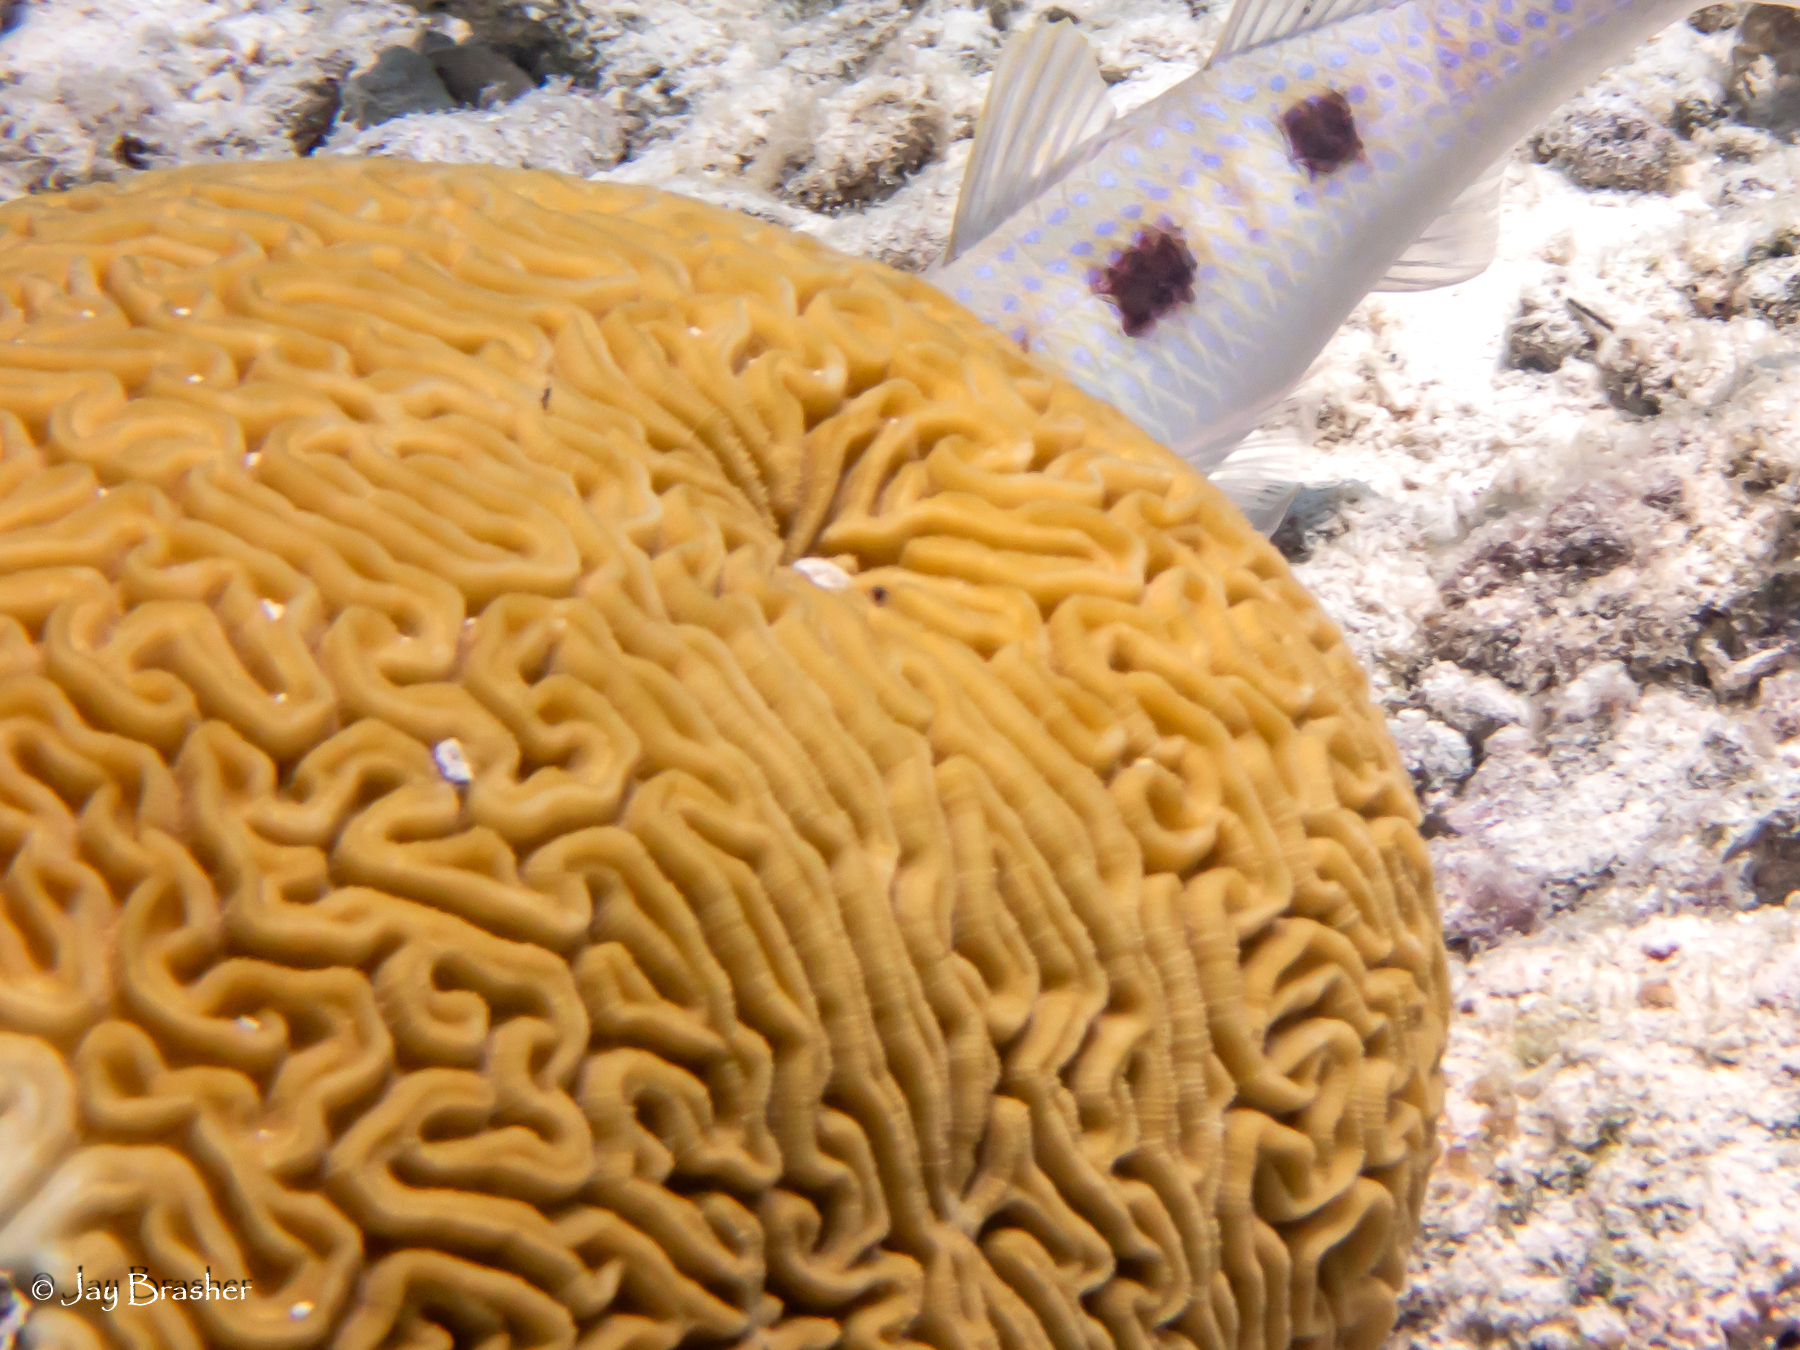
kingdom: Animalia
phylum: Cnidaria
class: Anthozoa
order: Scleractinia
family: Faviidae
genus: Diploria
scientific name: Diploria labyrinthiformis
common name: Grooved brain coral
